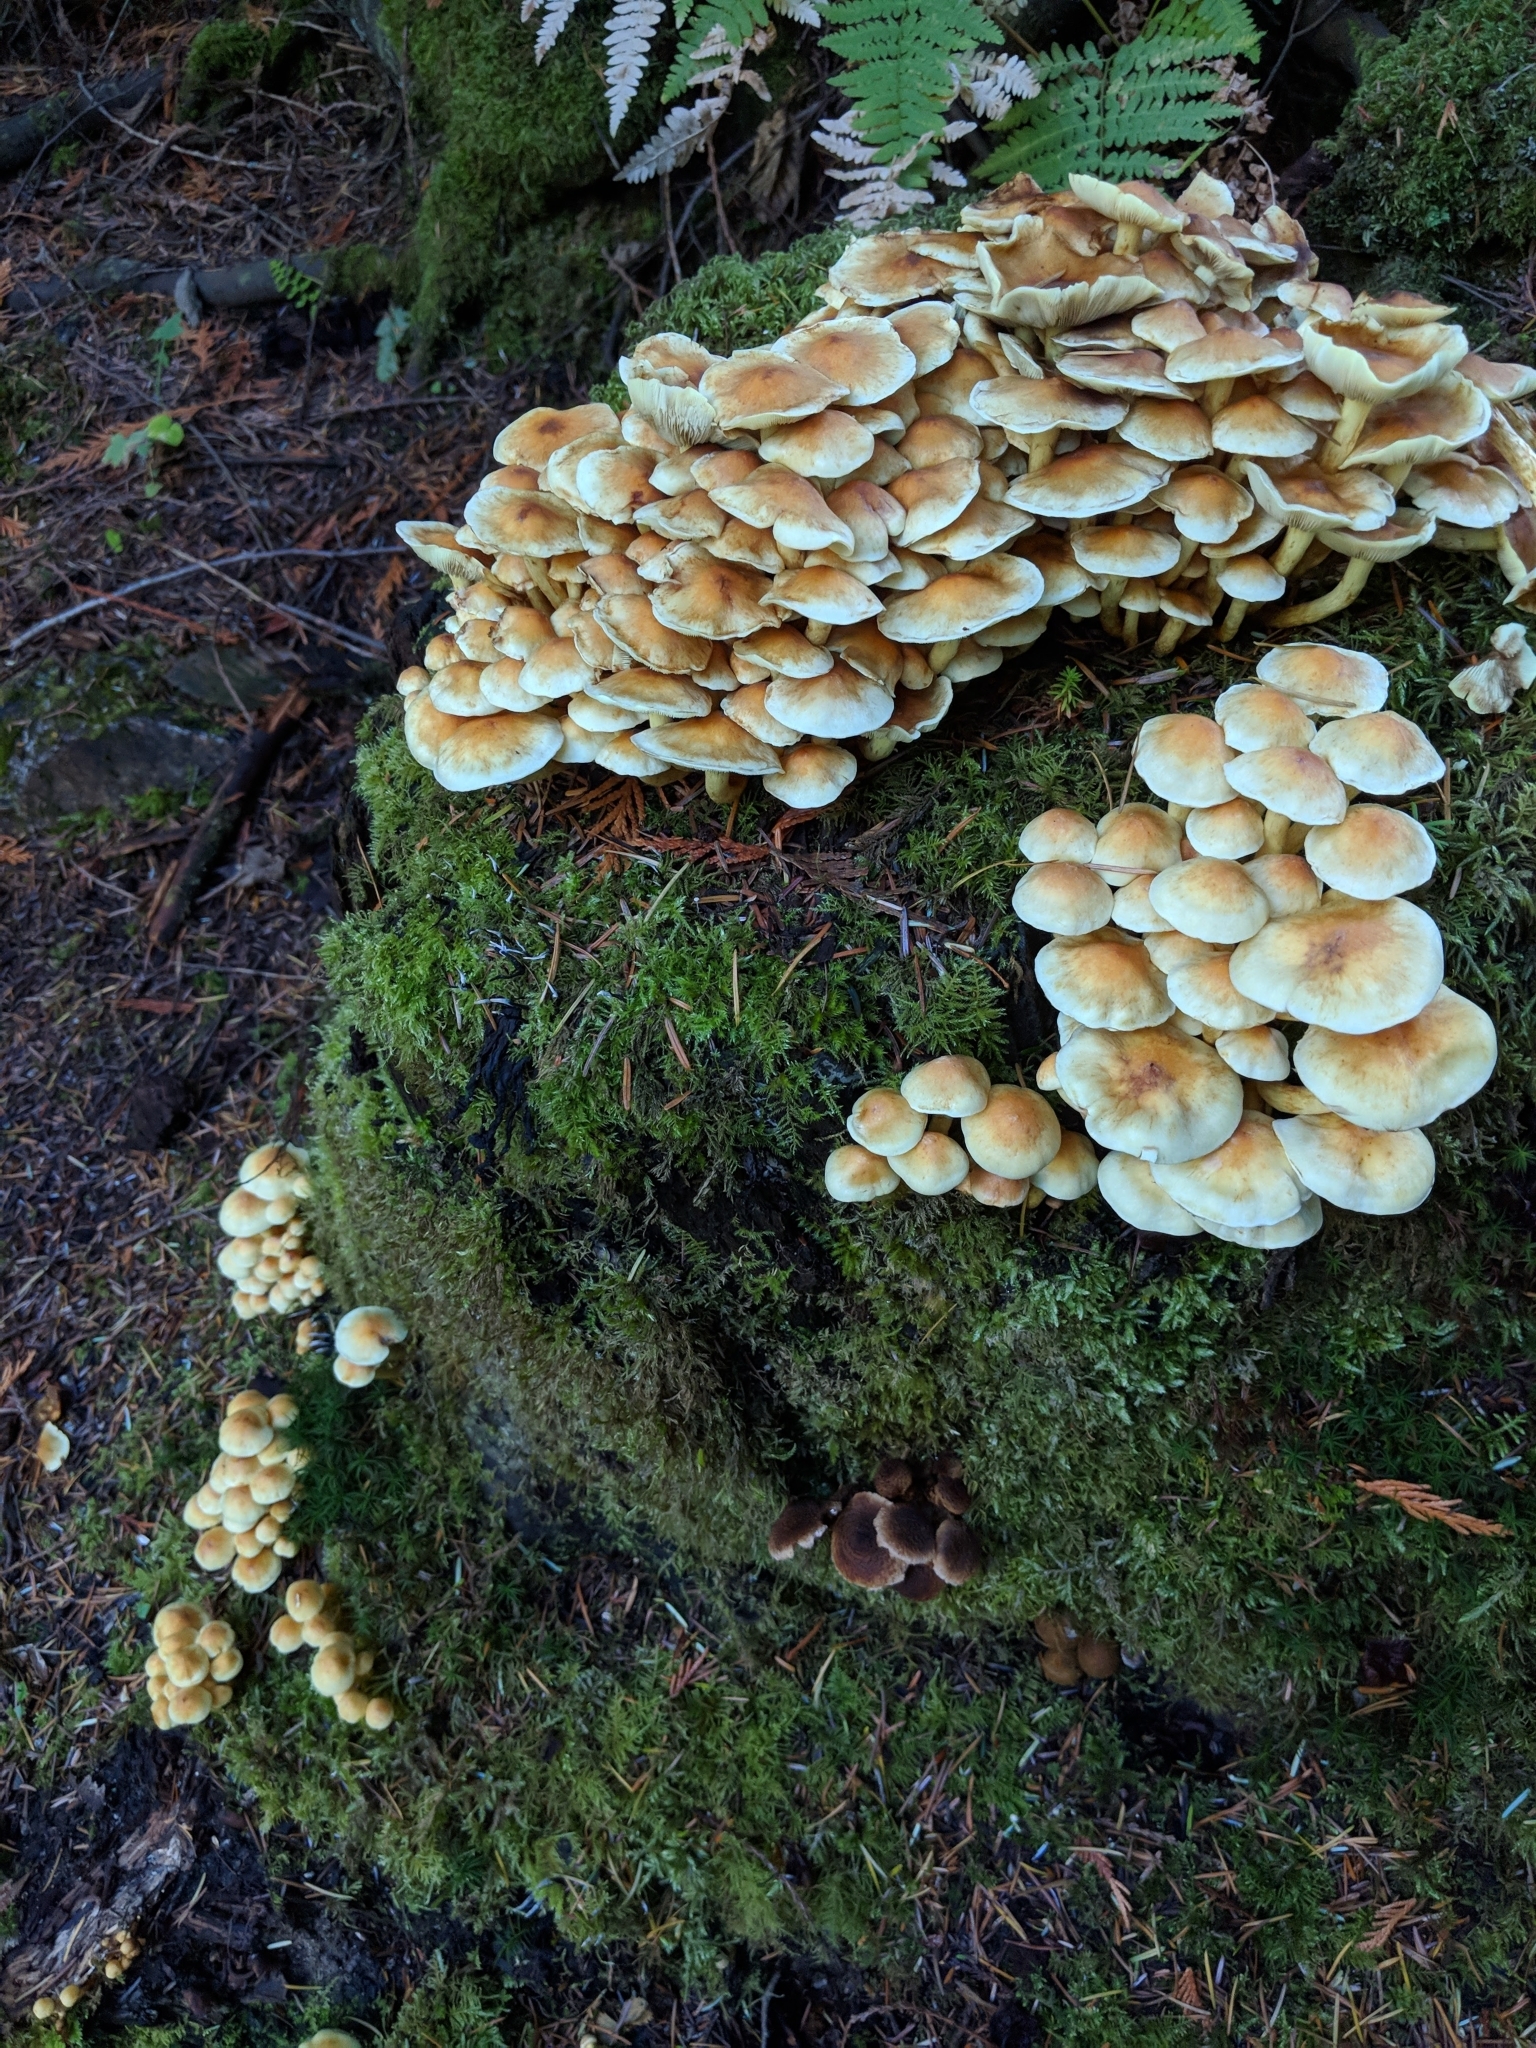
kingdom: Fungi
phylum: Basidiomycota
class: Agaricomycetes
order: Agaricales
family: Strophariaceae
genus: Hypholoma
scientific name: Hypholoma fasciculare
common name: Sulphur tuft
